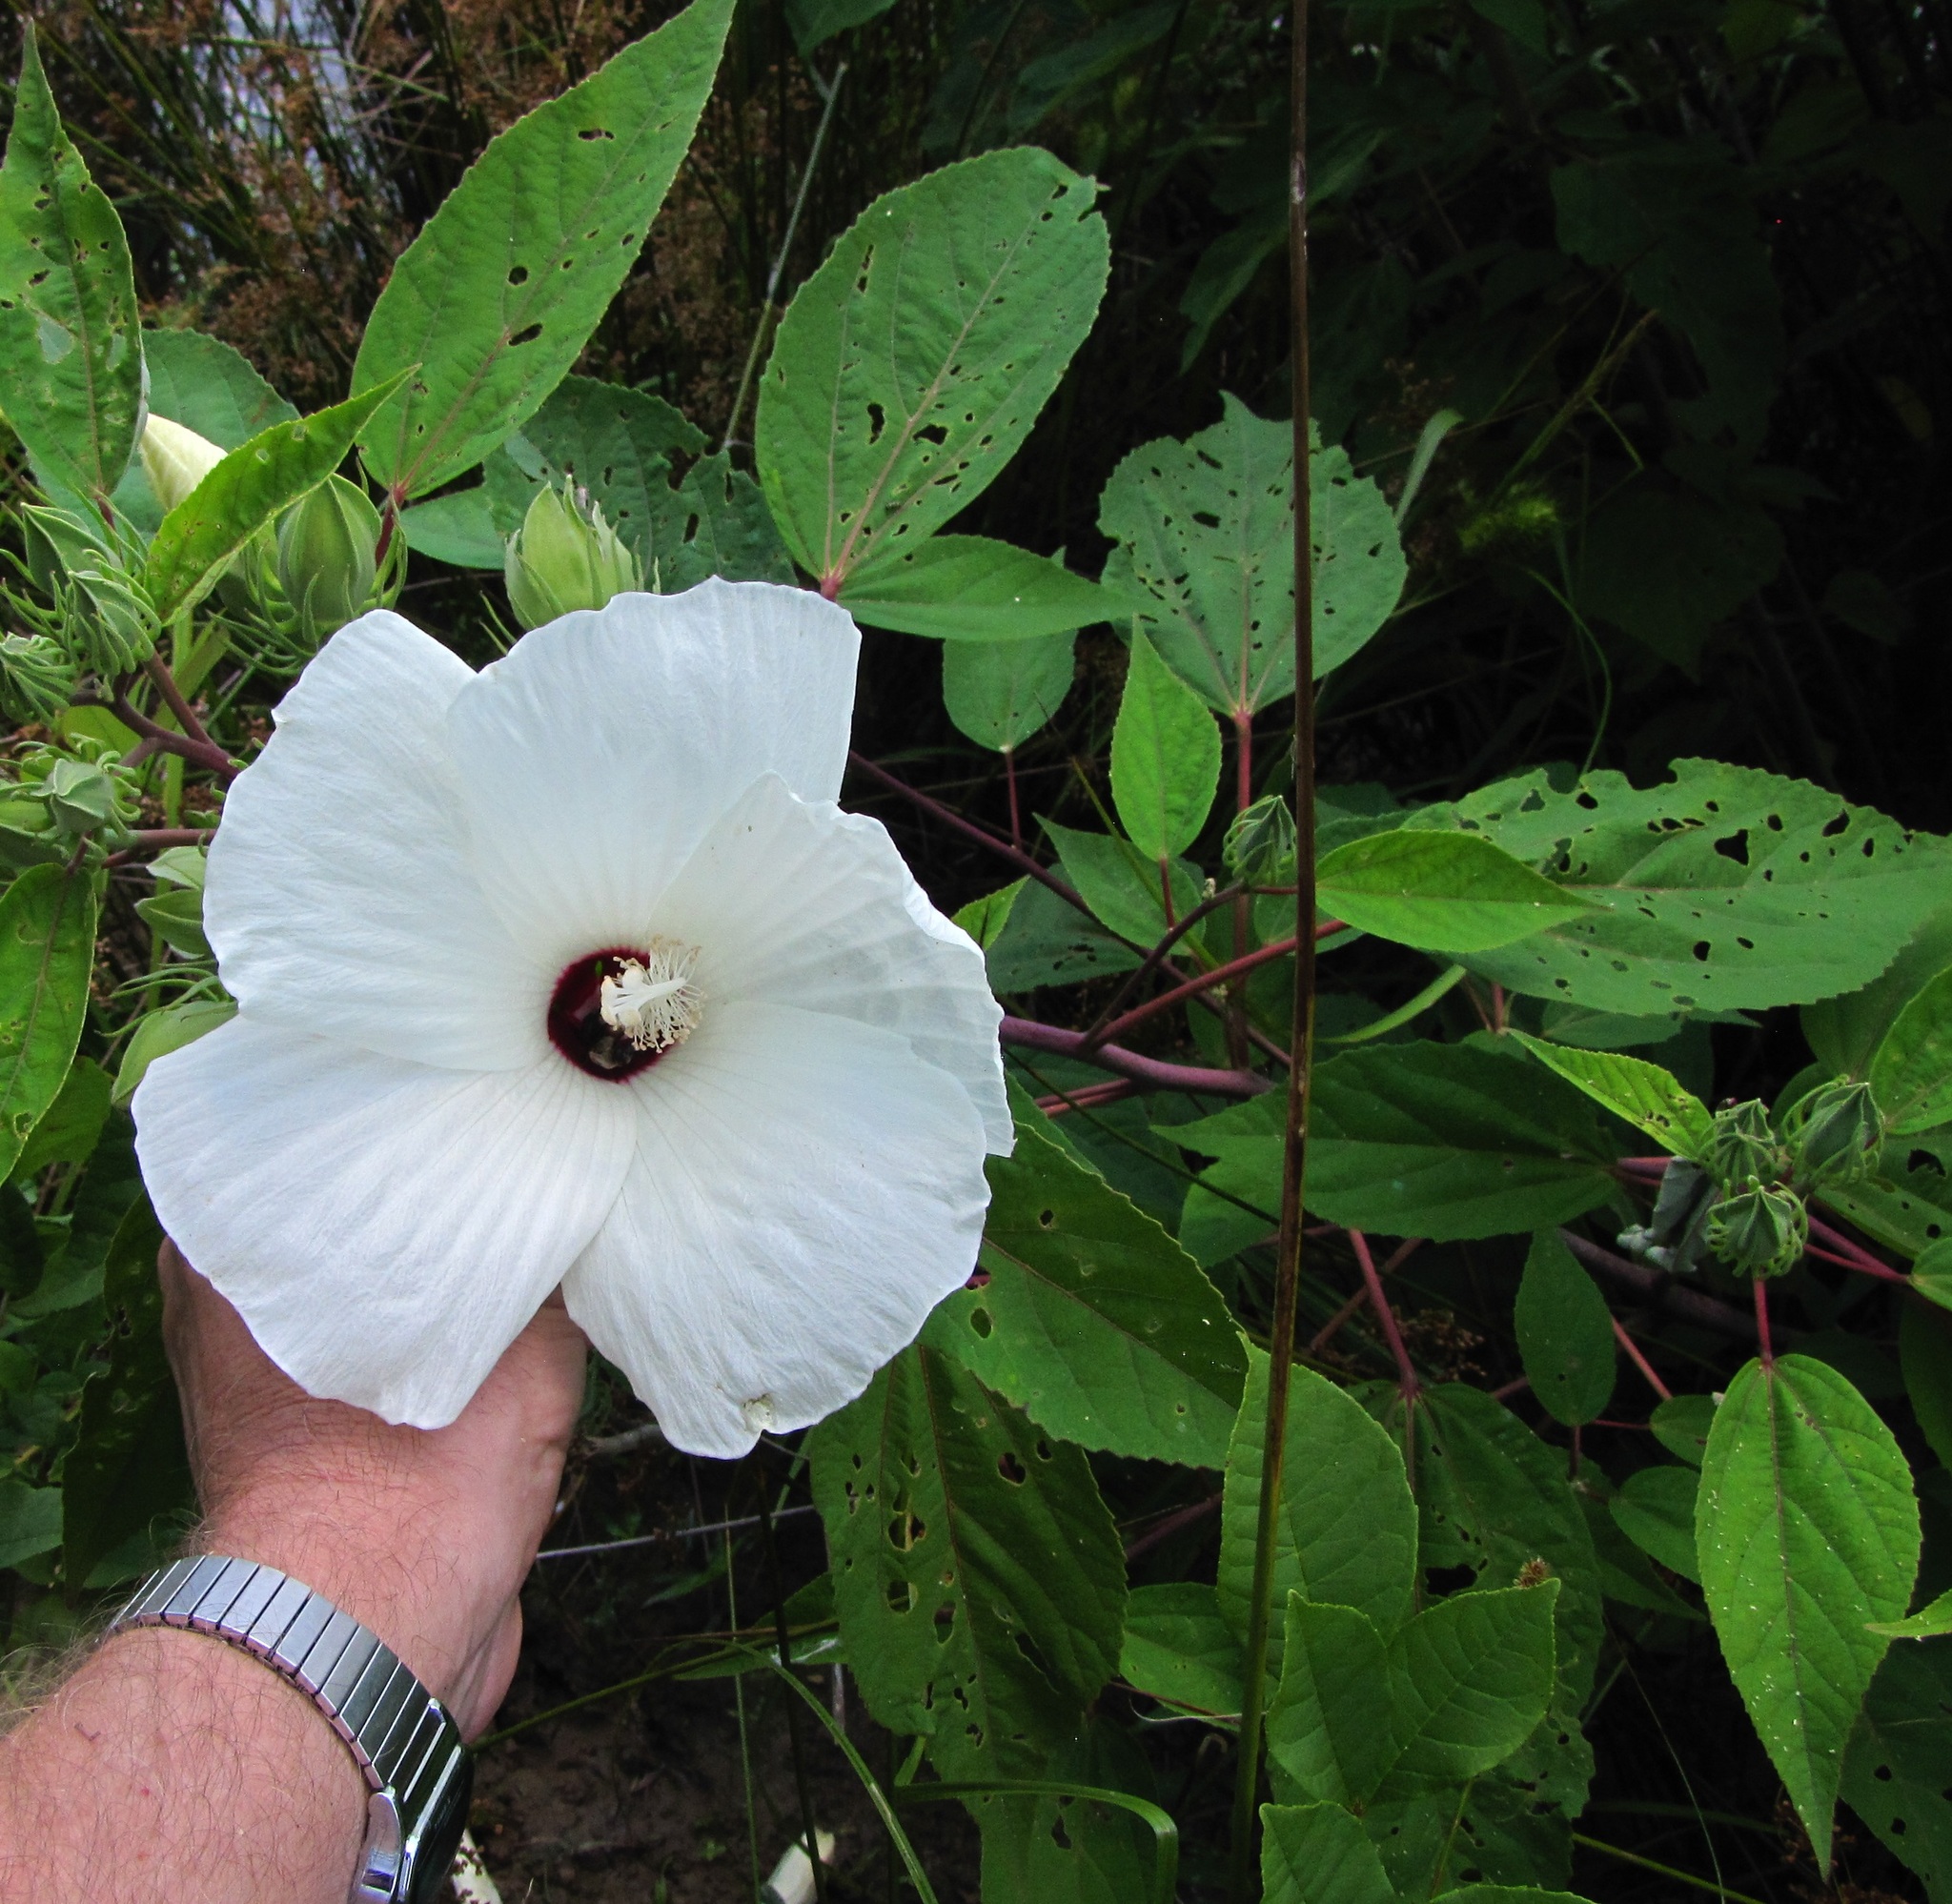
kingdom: Plantae
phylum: Tracheophyta
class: Magnoliopsida
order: Malvales
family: Malvaceae
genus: Hibiscus
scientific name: Hibiscus moscheutos
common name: Common rose-mallow
